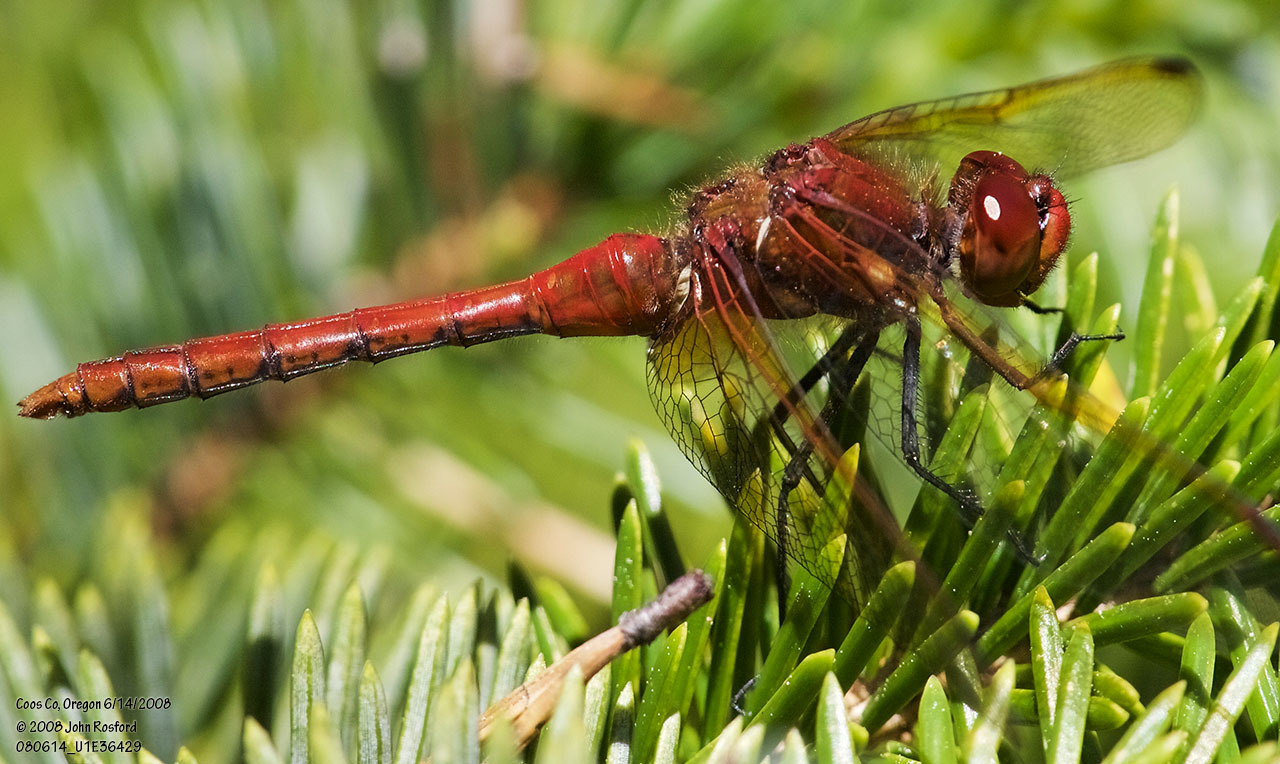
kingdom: Animalia
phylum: Arthropoda
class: Insecta
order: Odonata
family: Libellulidae
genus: Sympetrum
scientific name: Sympetrum madidum
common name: Red-veined meadowhawk
